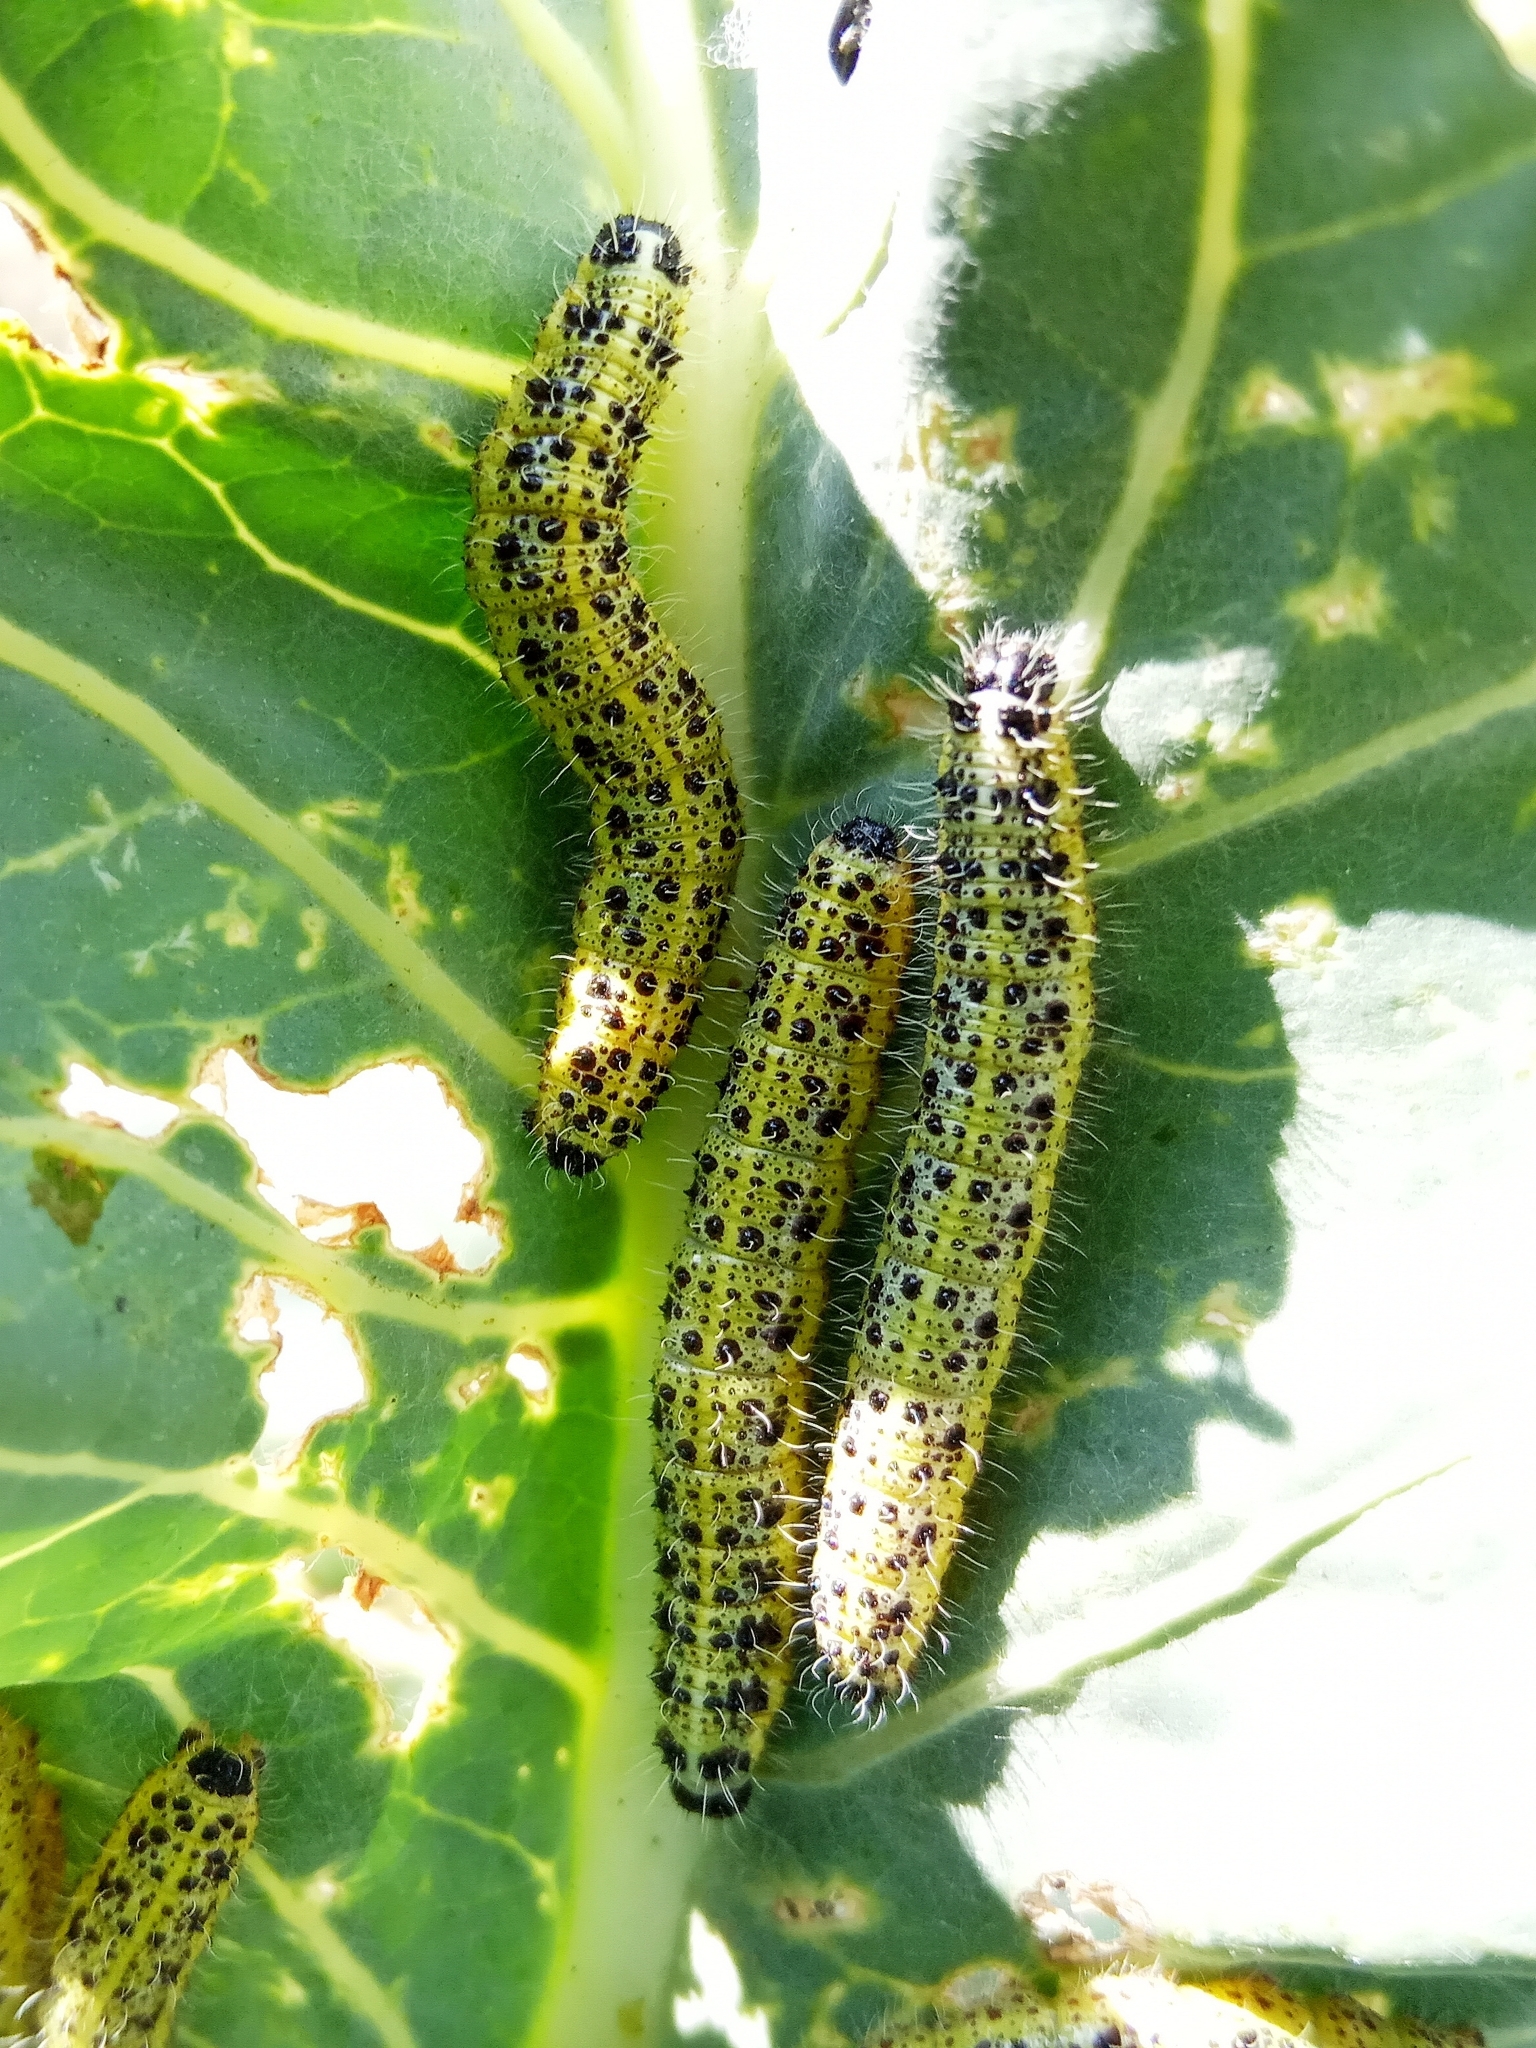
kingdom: Animalia
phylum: Arthropoda
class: Insecta
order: Lepidoptera
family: Pieridae
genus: Pieris
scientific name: Pieris brassicae
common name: Large white
